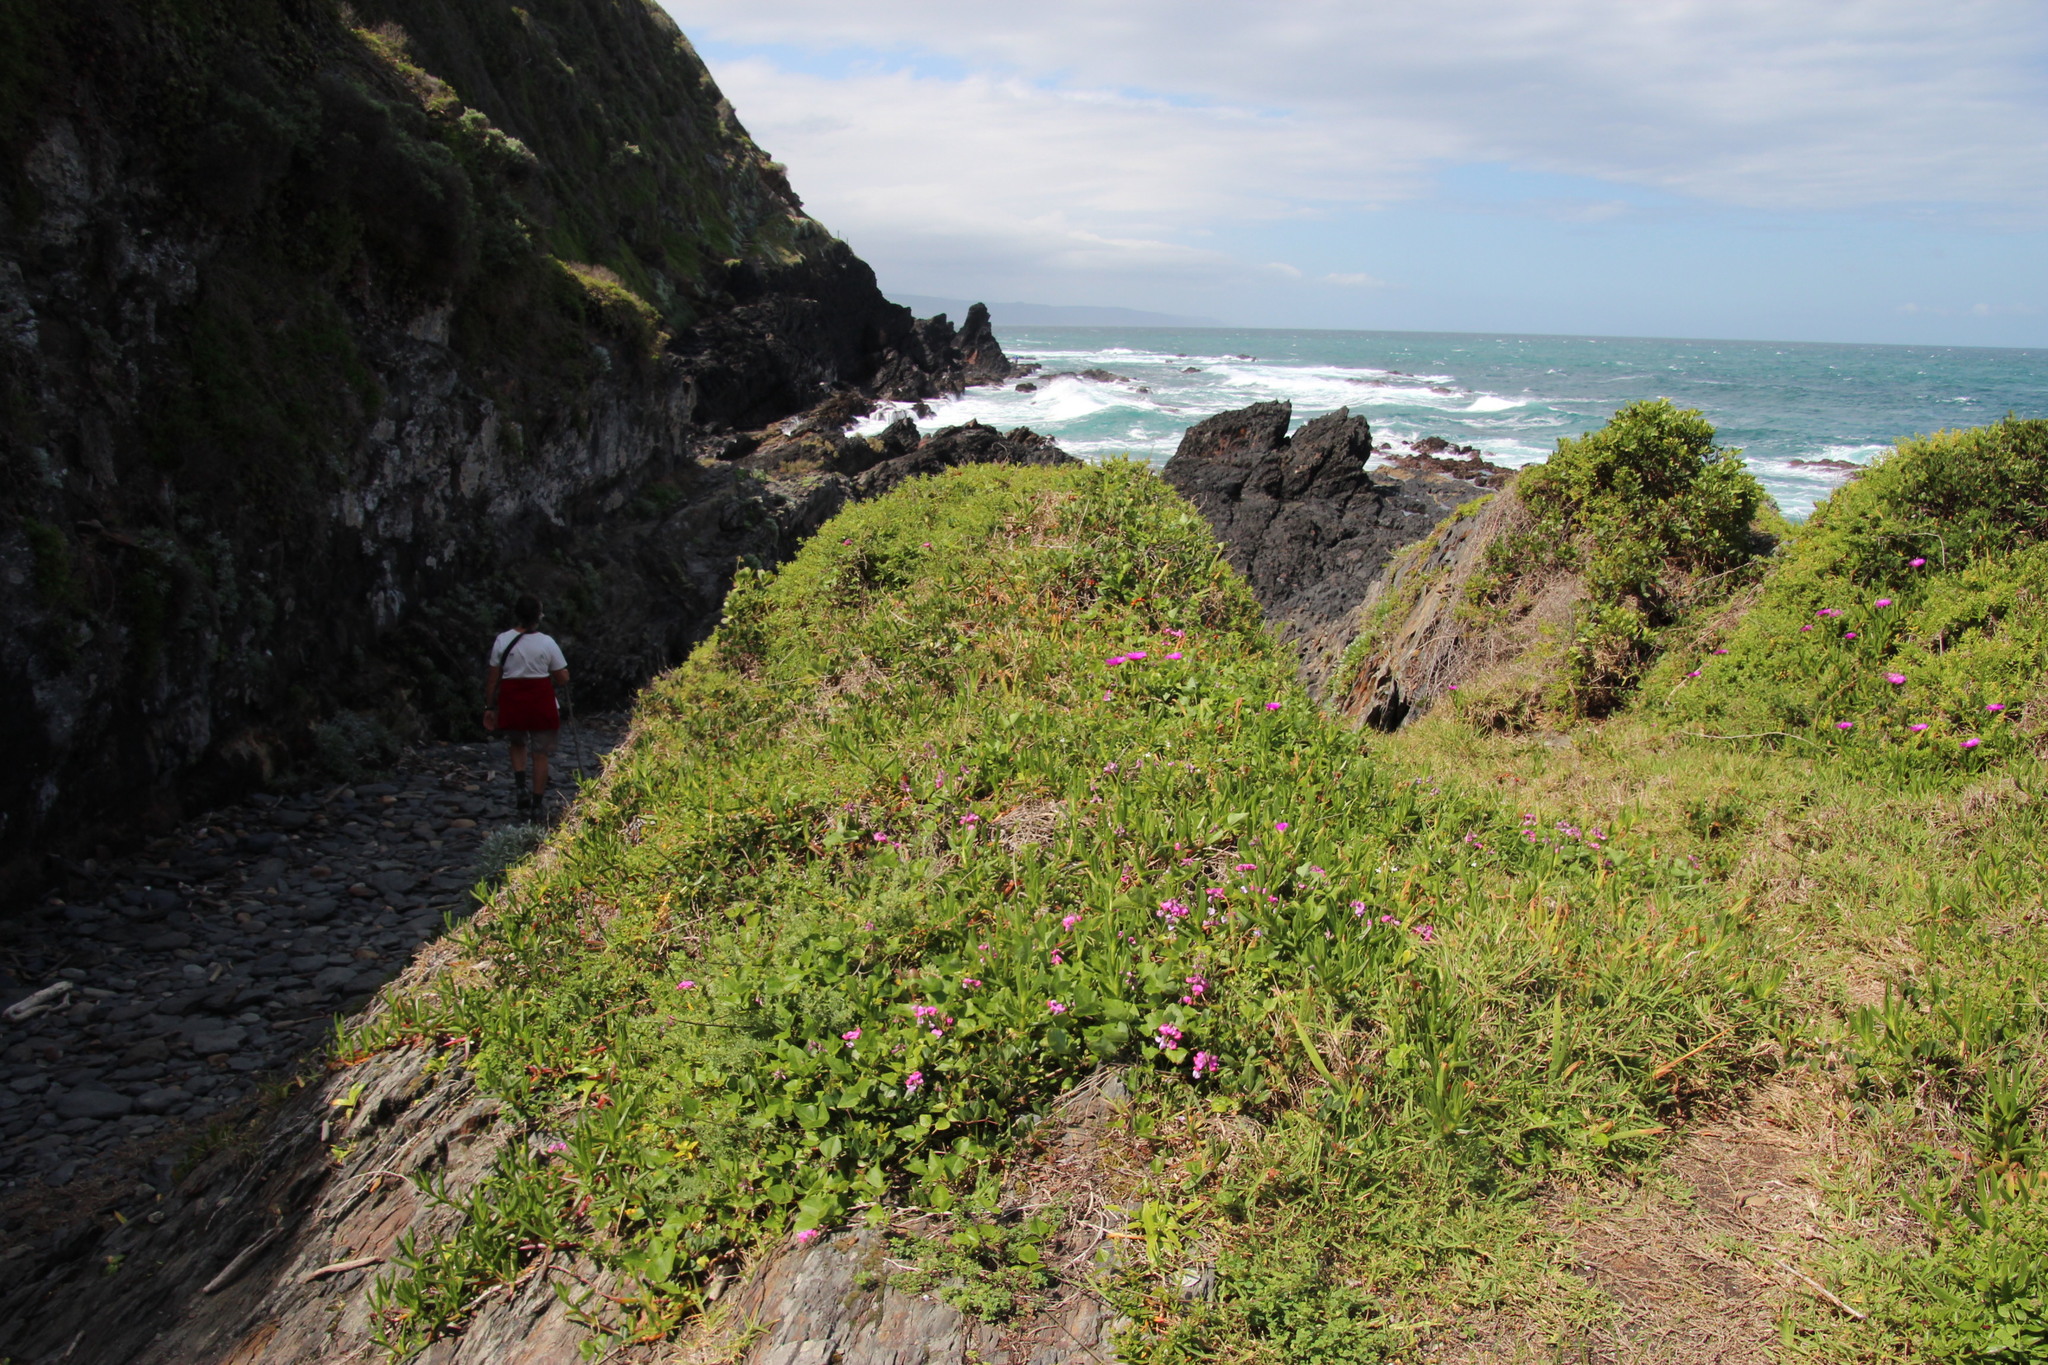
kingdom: Plantae
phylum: Tracheophyta
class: Magnoliopsida
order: Fabales
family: Fabaceae
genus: Dipogon
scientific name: Dipogon lignosus
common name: Okie bean
